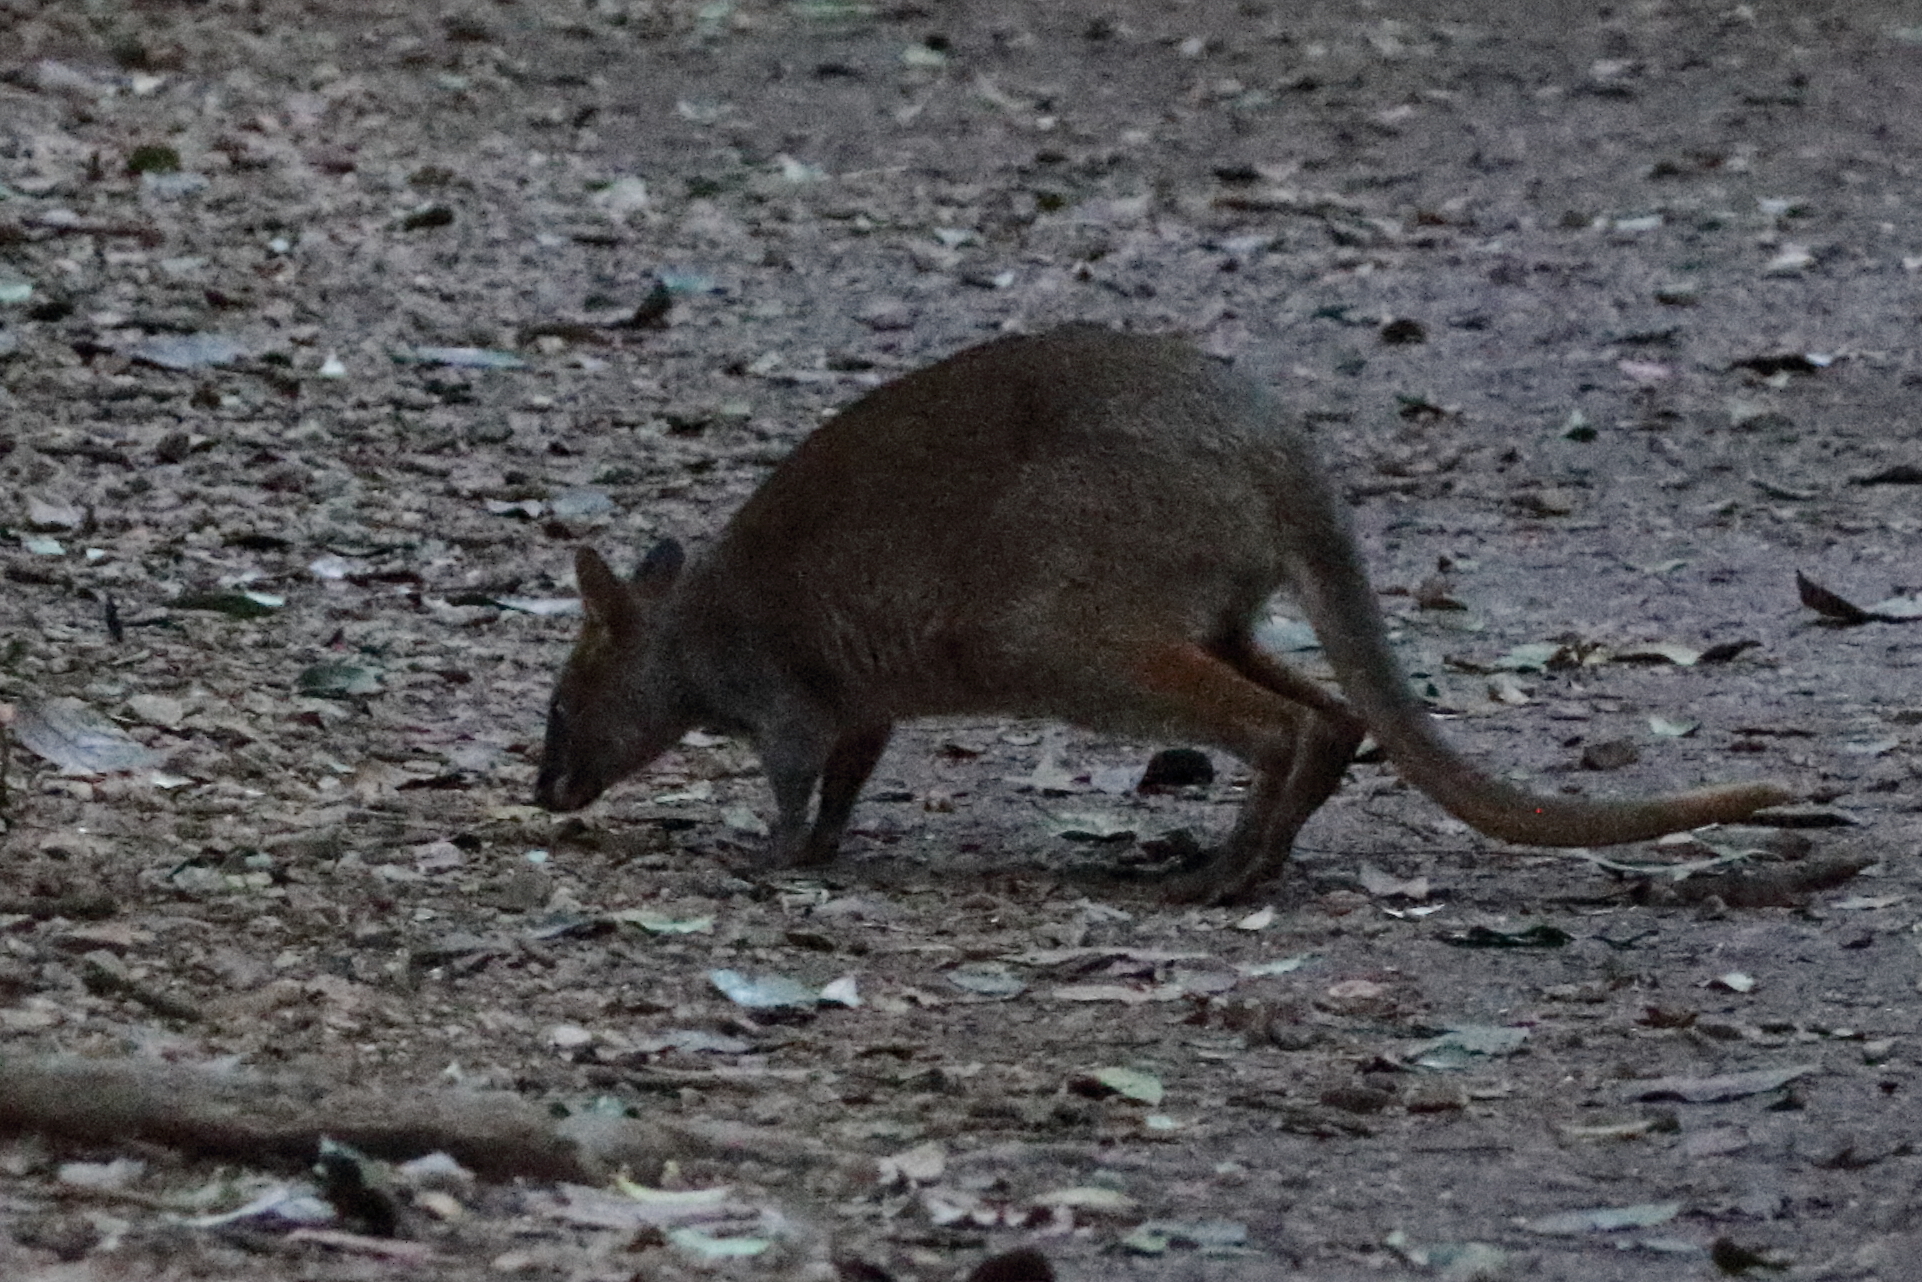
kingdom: Animalia
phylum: Chordata
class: Mammalia
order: Diprotodontia
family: Macropodidae
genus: Thylogale
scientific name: Thylogale stigmatica
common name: Red-legged pademelon
